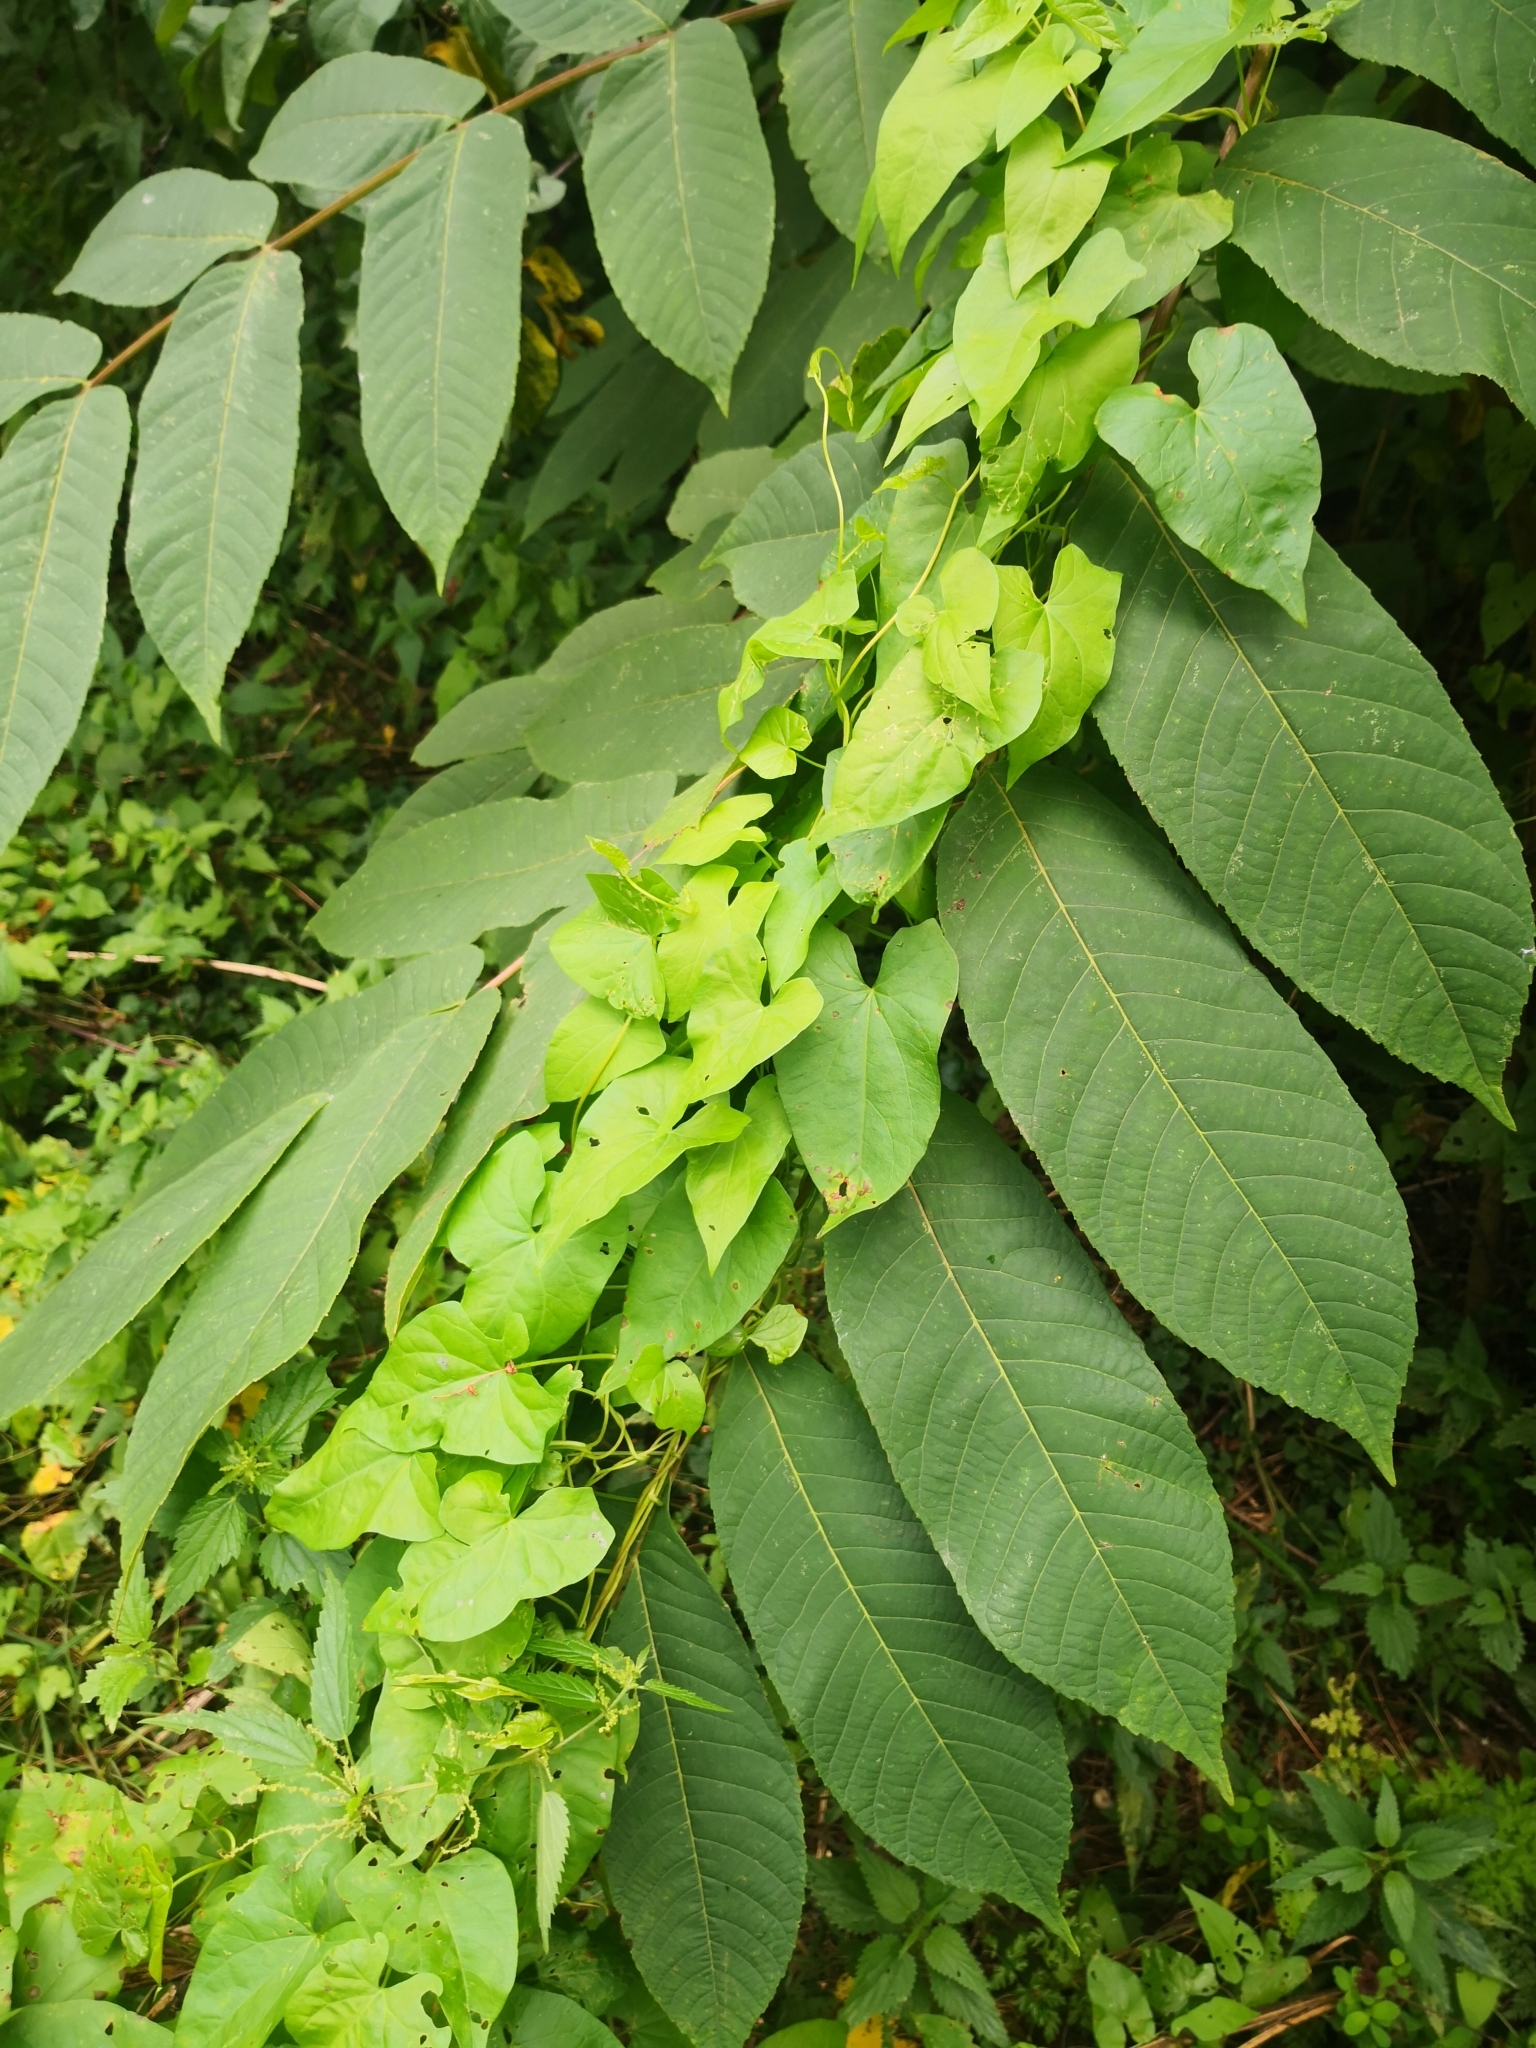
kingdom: Plantae
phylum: Tracheophyta
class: Magnoliopsida
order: Fagales
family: Juglandaceae
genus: Juglans
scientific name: Juglans mandshurica
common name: Manchurian walnut
